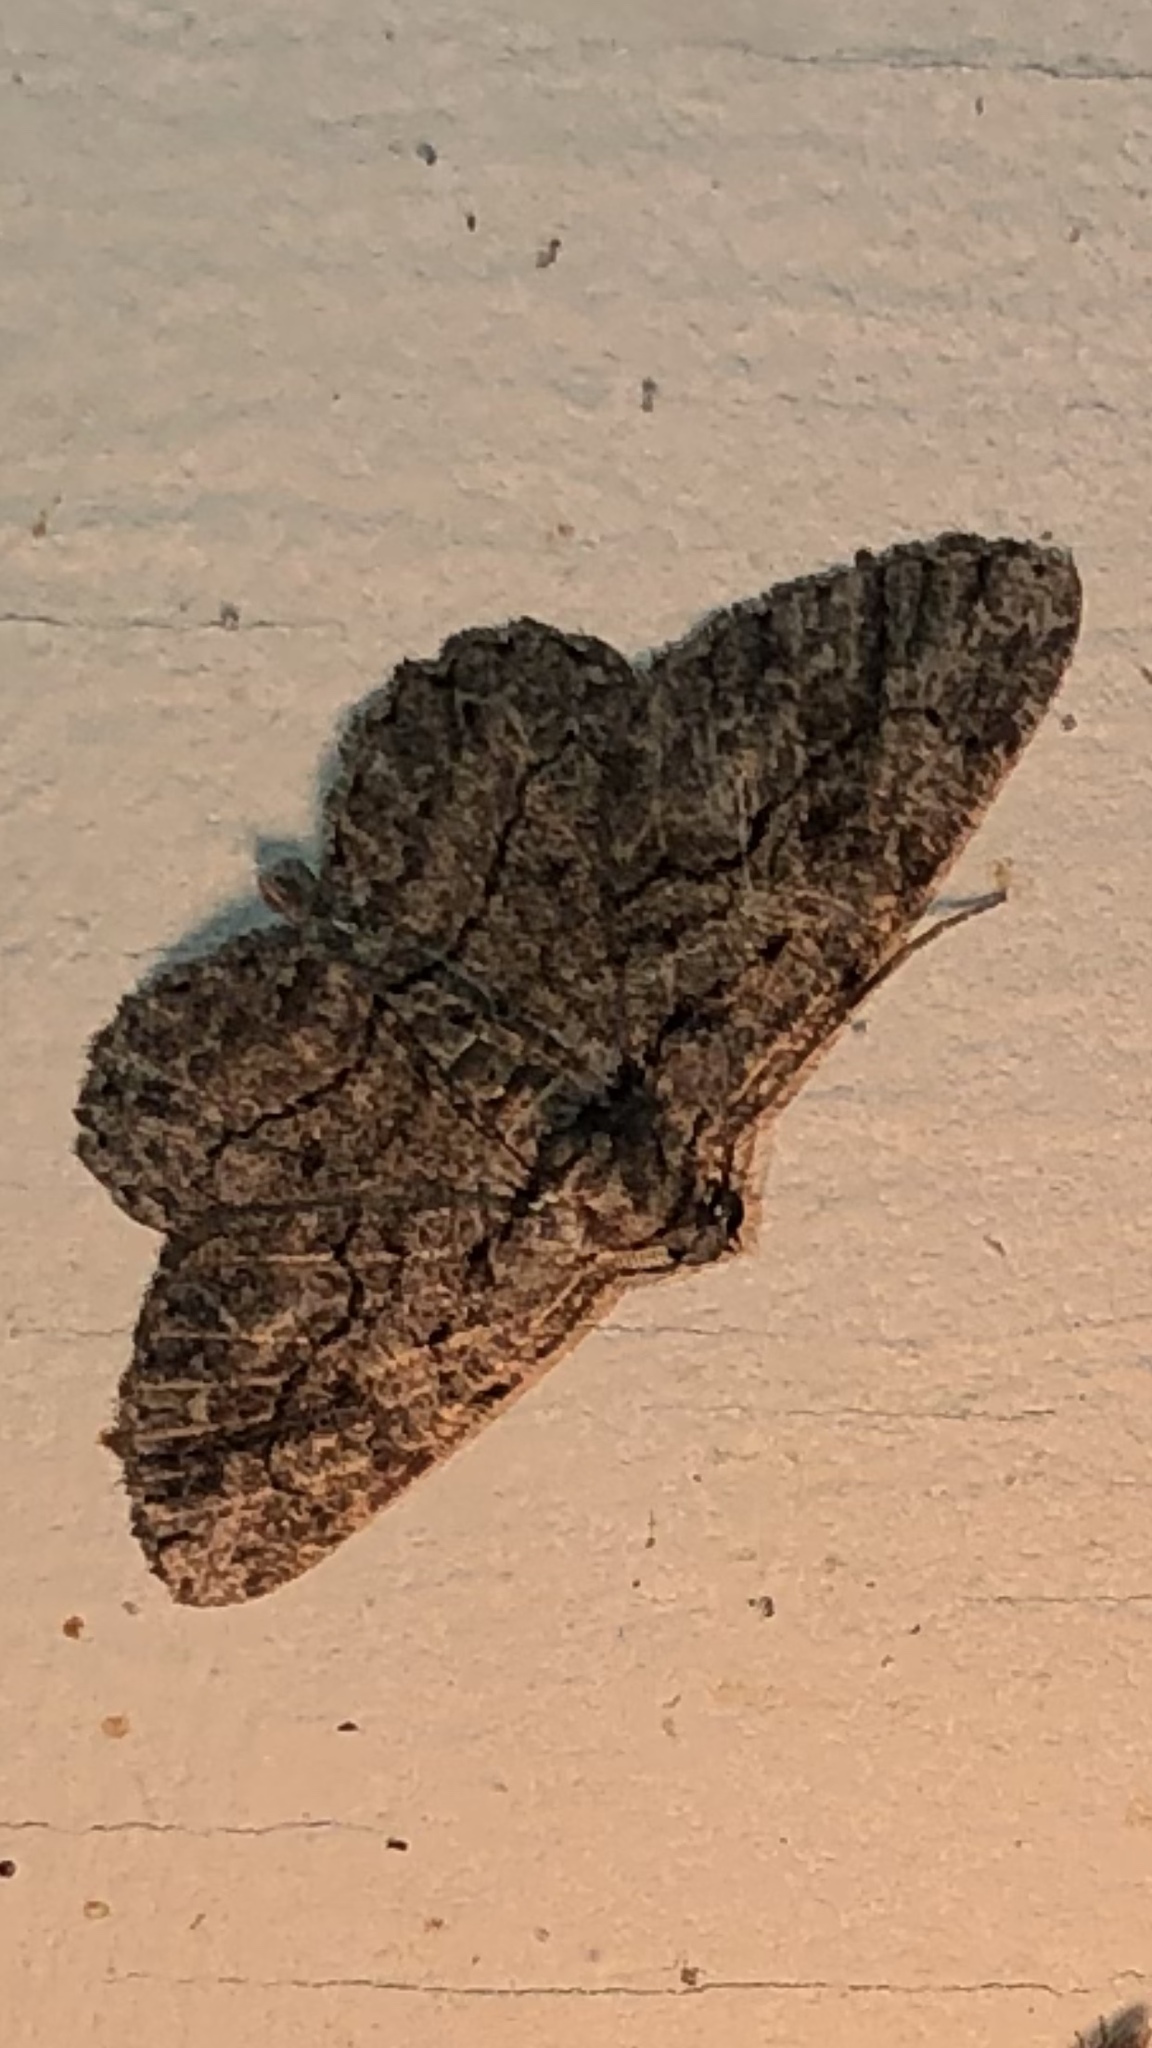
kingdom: Animalia
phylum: Arthropoda
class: Insecta
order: Lepidoptera
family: Geometridae
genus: Anavitrinella
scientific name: Anavitrinella pampinaria
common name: Common gray
